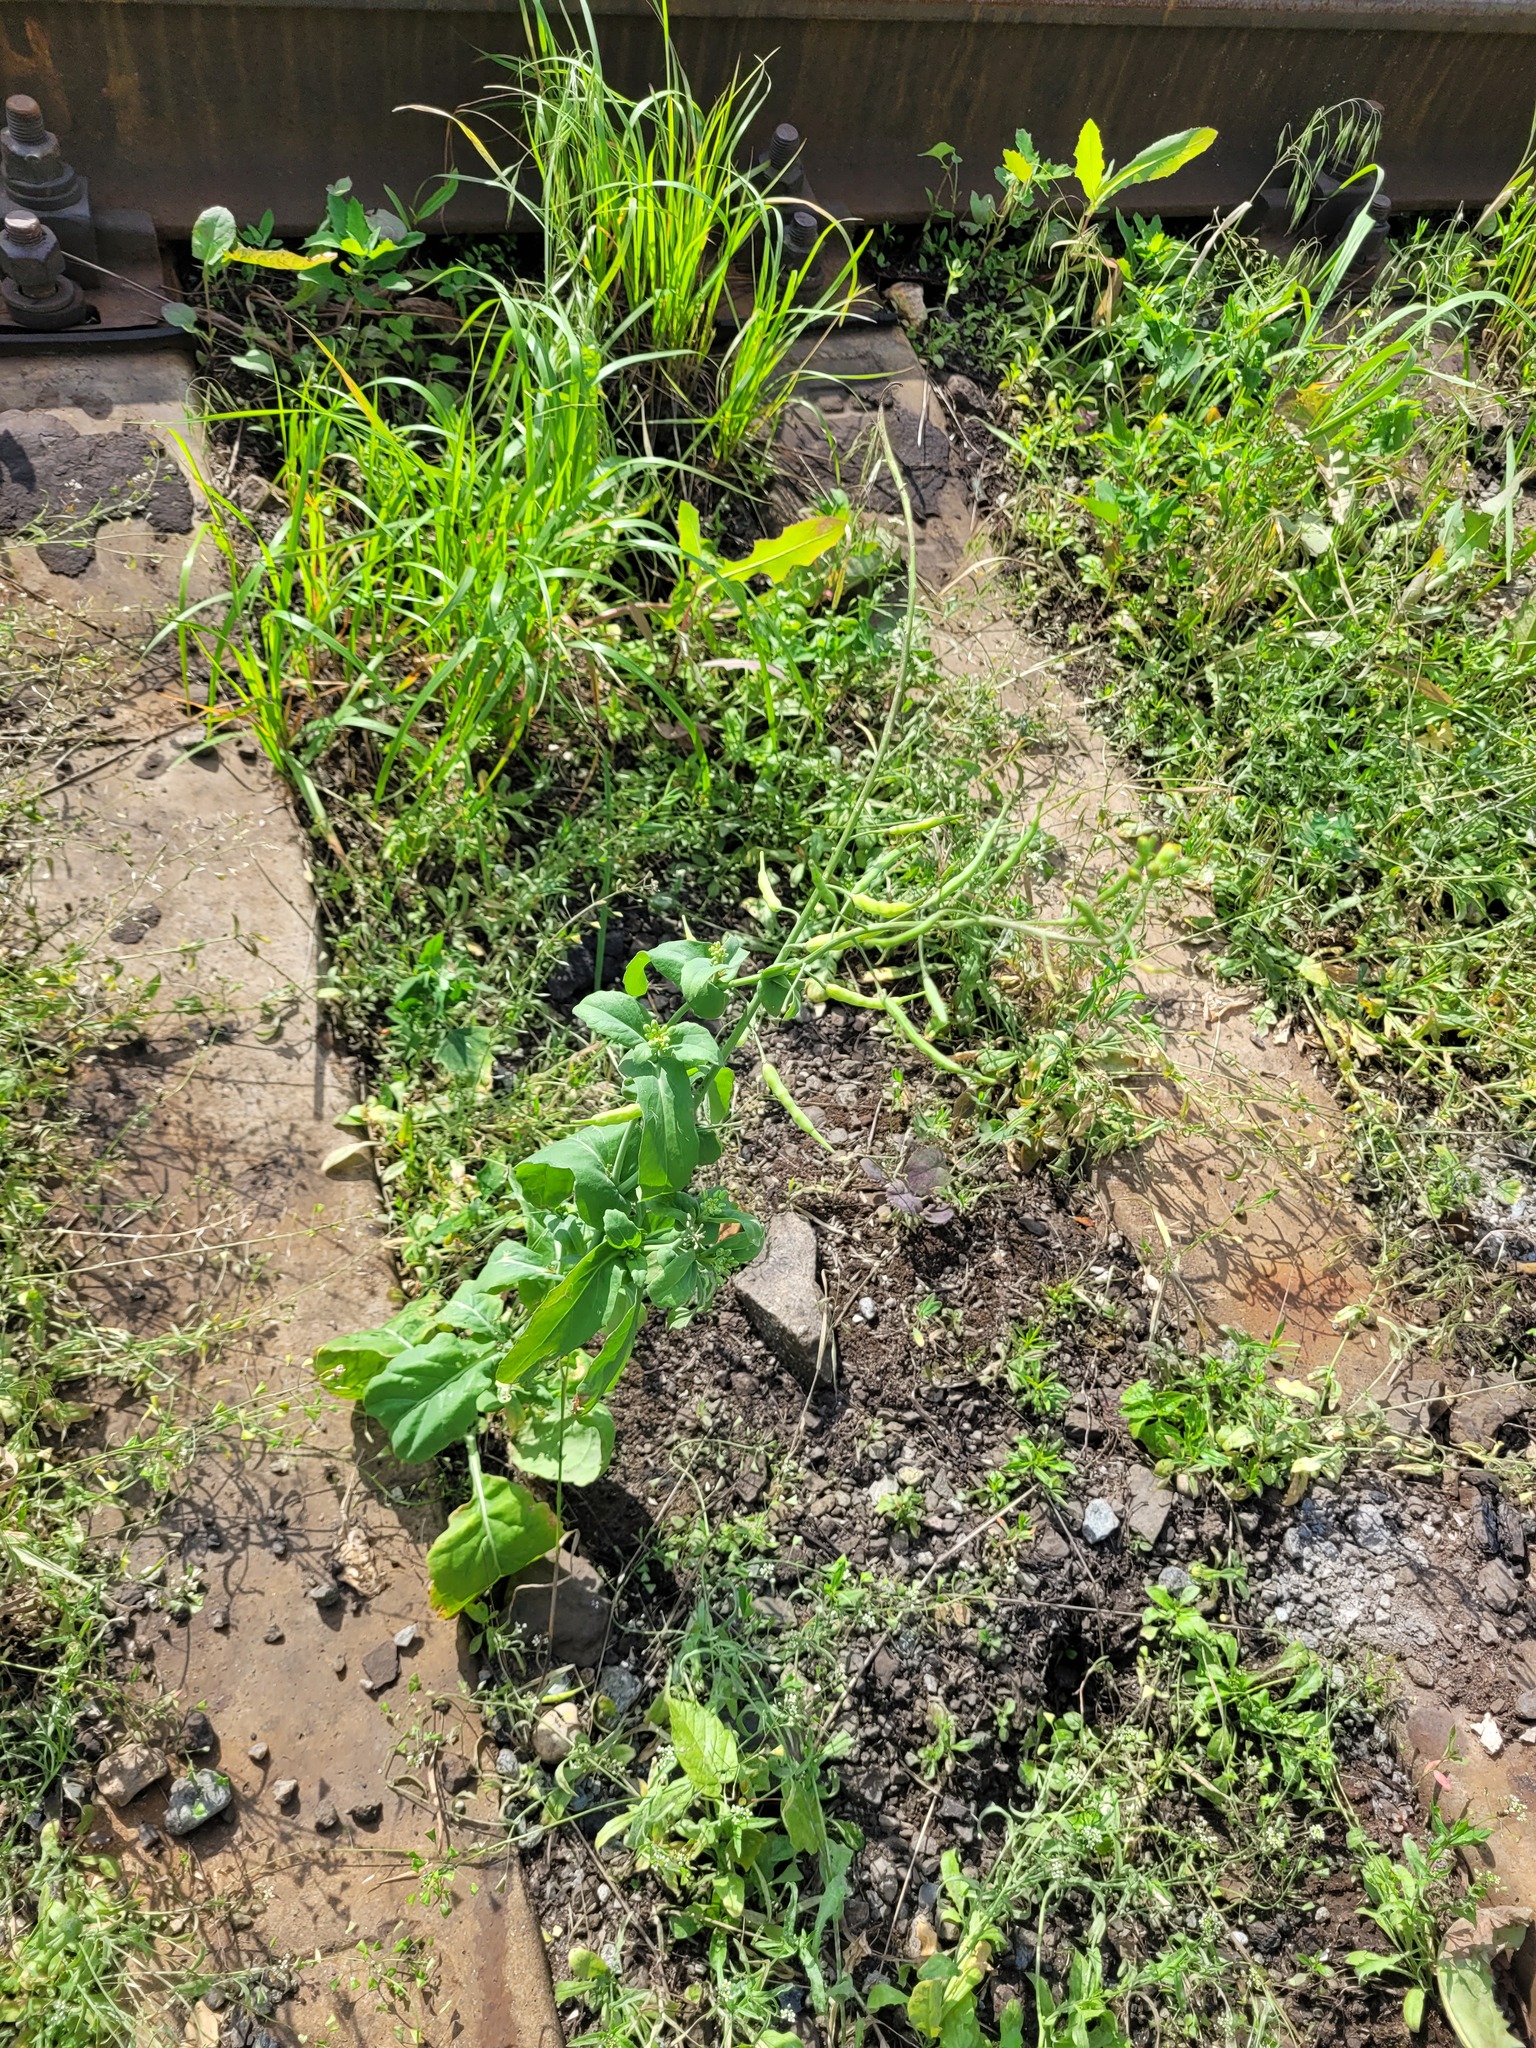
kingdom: Plantae
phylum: Tracheophyta
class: Magnoliopsida
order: Brassicales
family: Brassicaceae
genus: Brassica
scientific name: Brassica napus
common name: Rape
